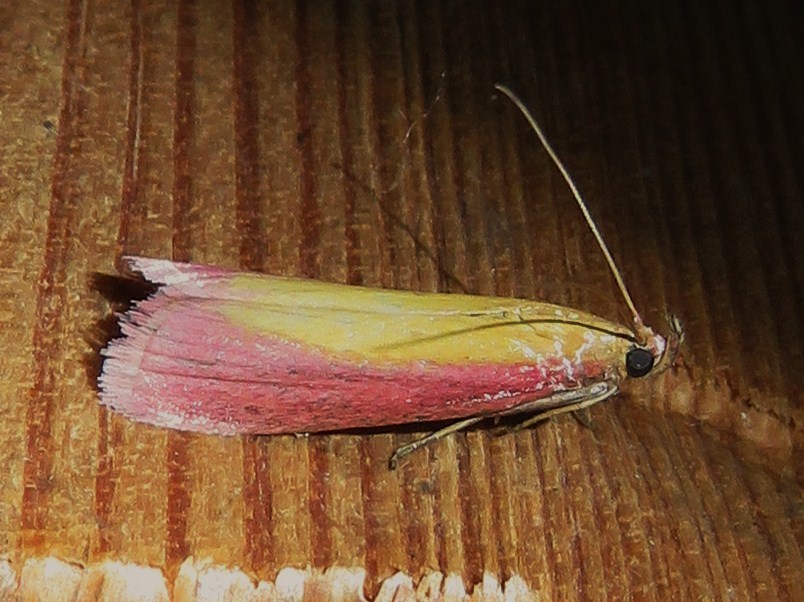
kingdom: Animalia
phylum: Arthropoda
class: Insecta
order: Lepidoptera
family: Pyralidae
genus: Oncocera
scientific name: Oncocera semirubella
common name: Rosy-striped knot-horn
